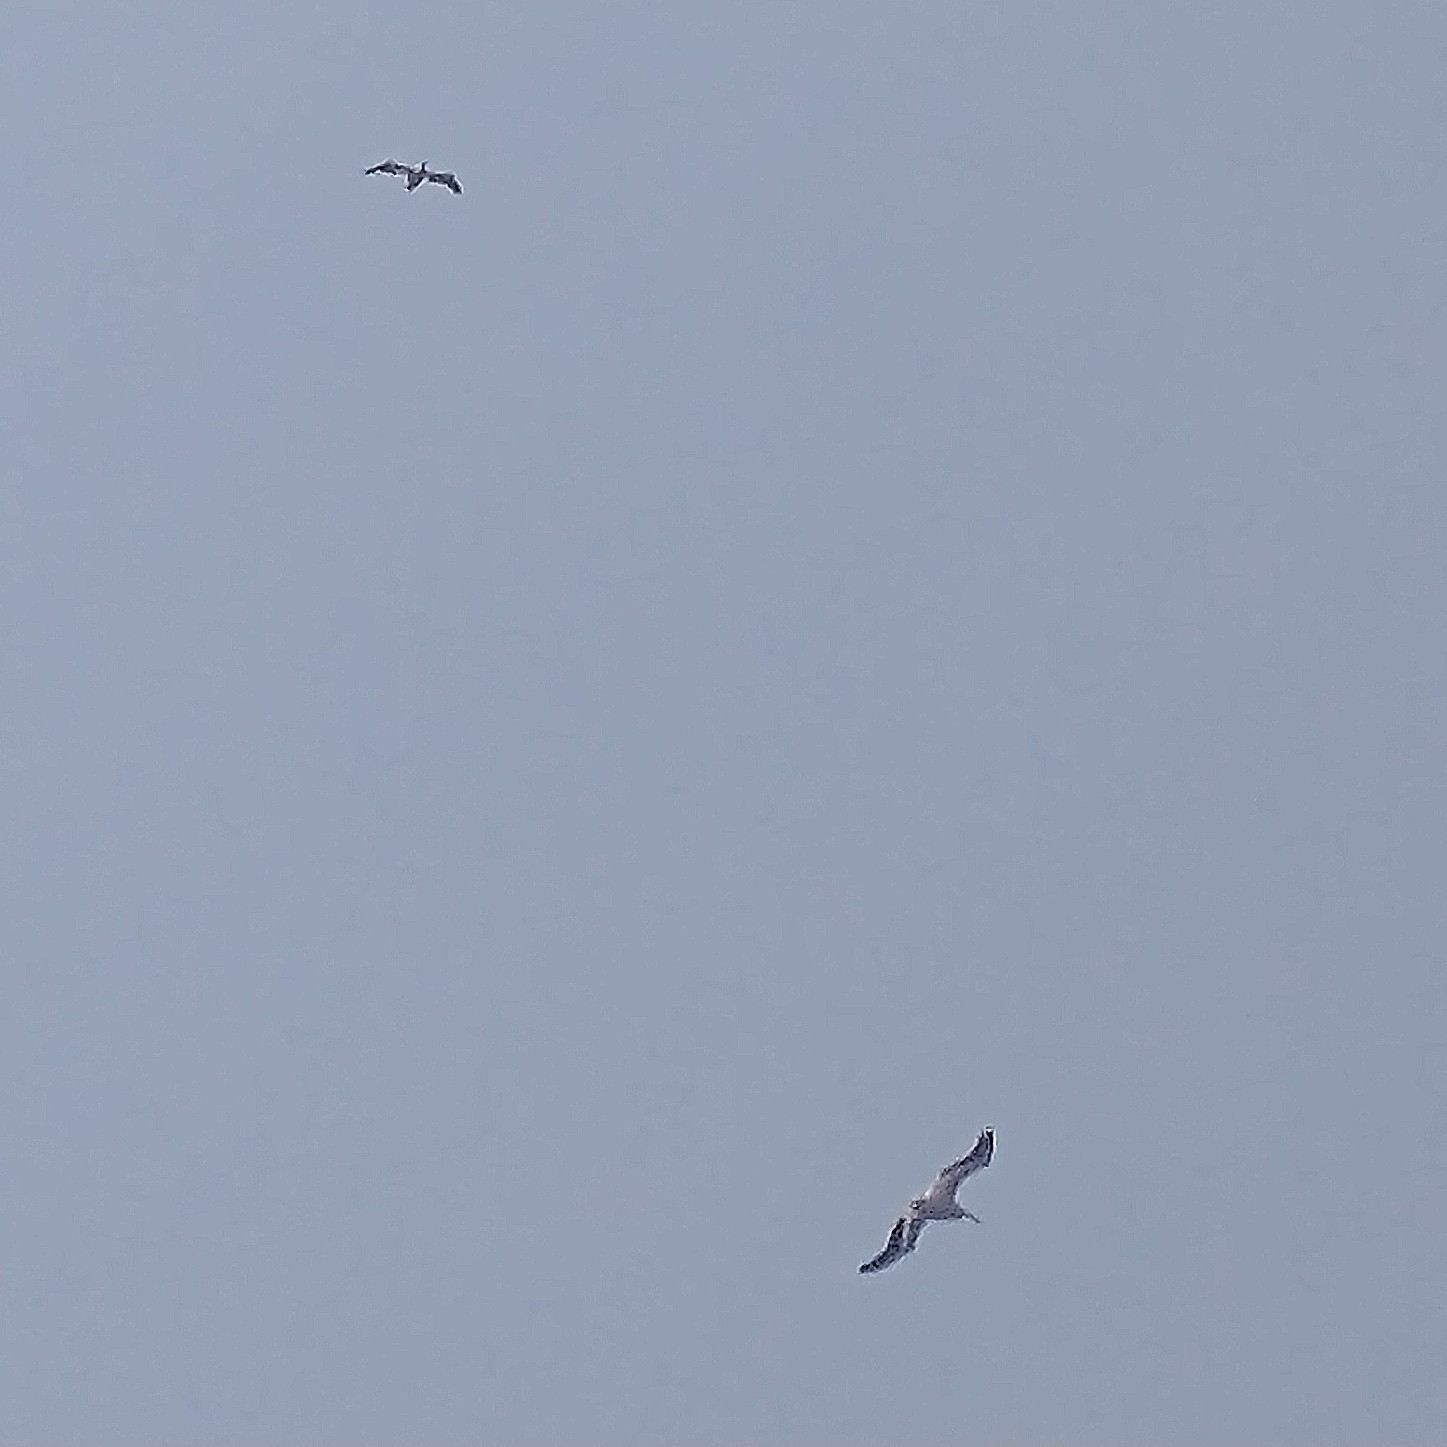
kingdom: Animalia
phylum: Chordata
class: Aves
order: Pelecaniformes
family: Pelecanidae
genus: Pelecanus
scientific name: Pelecanus erythrorhynchos
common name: American white pelican
